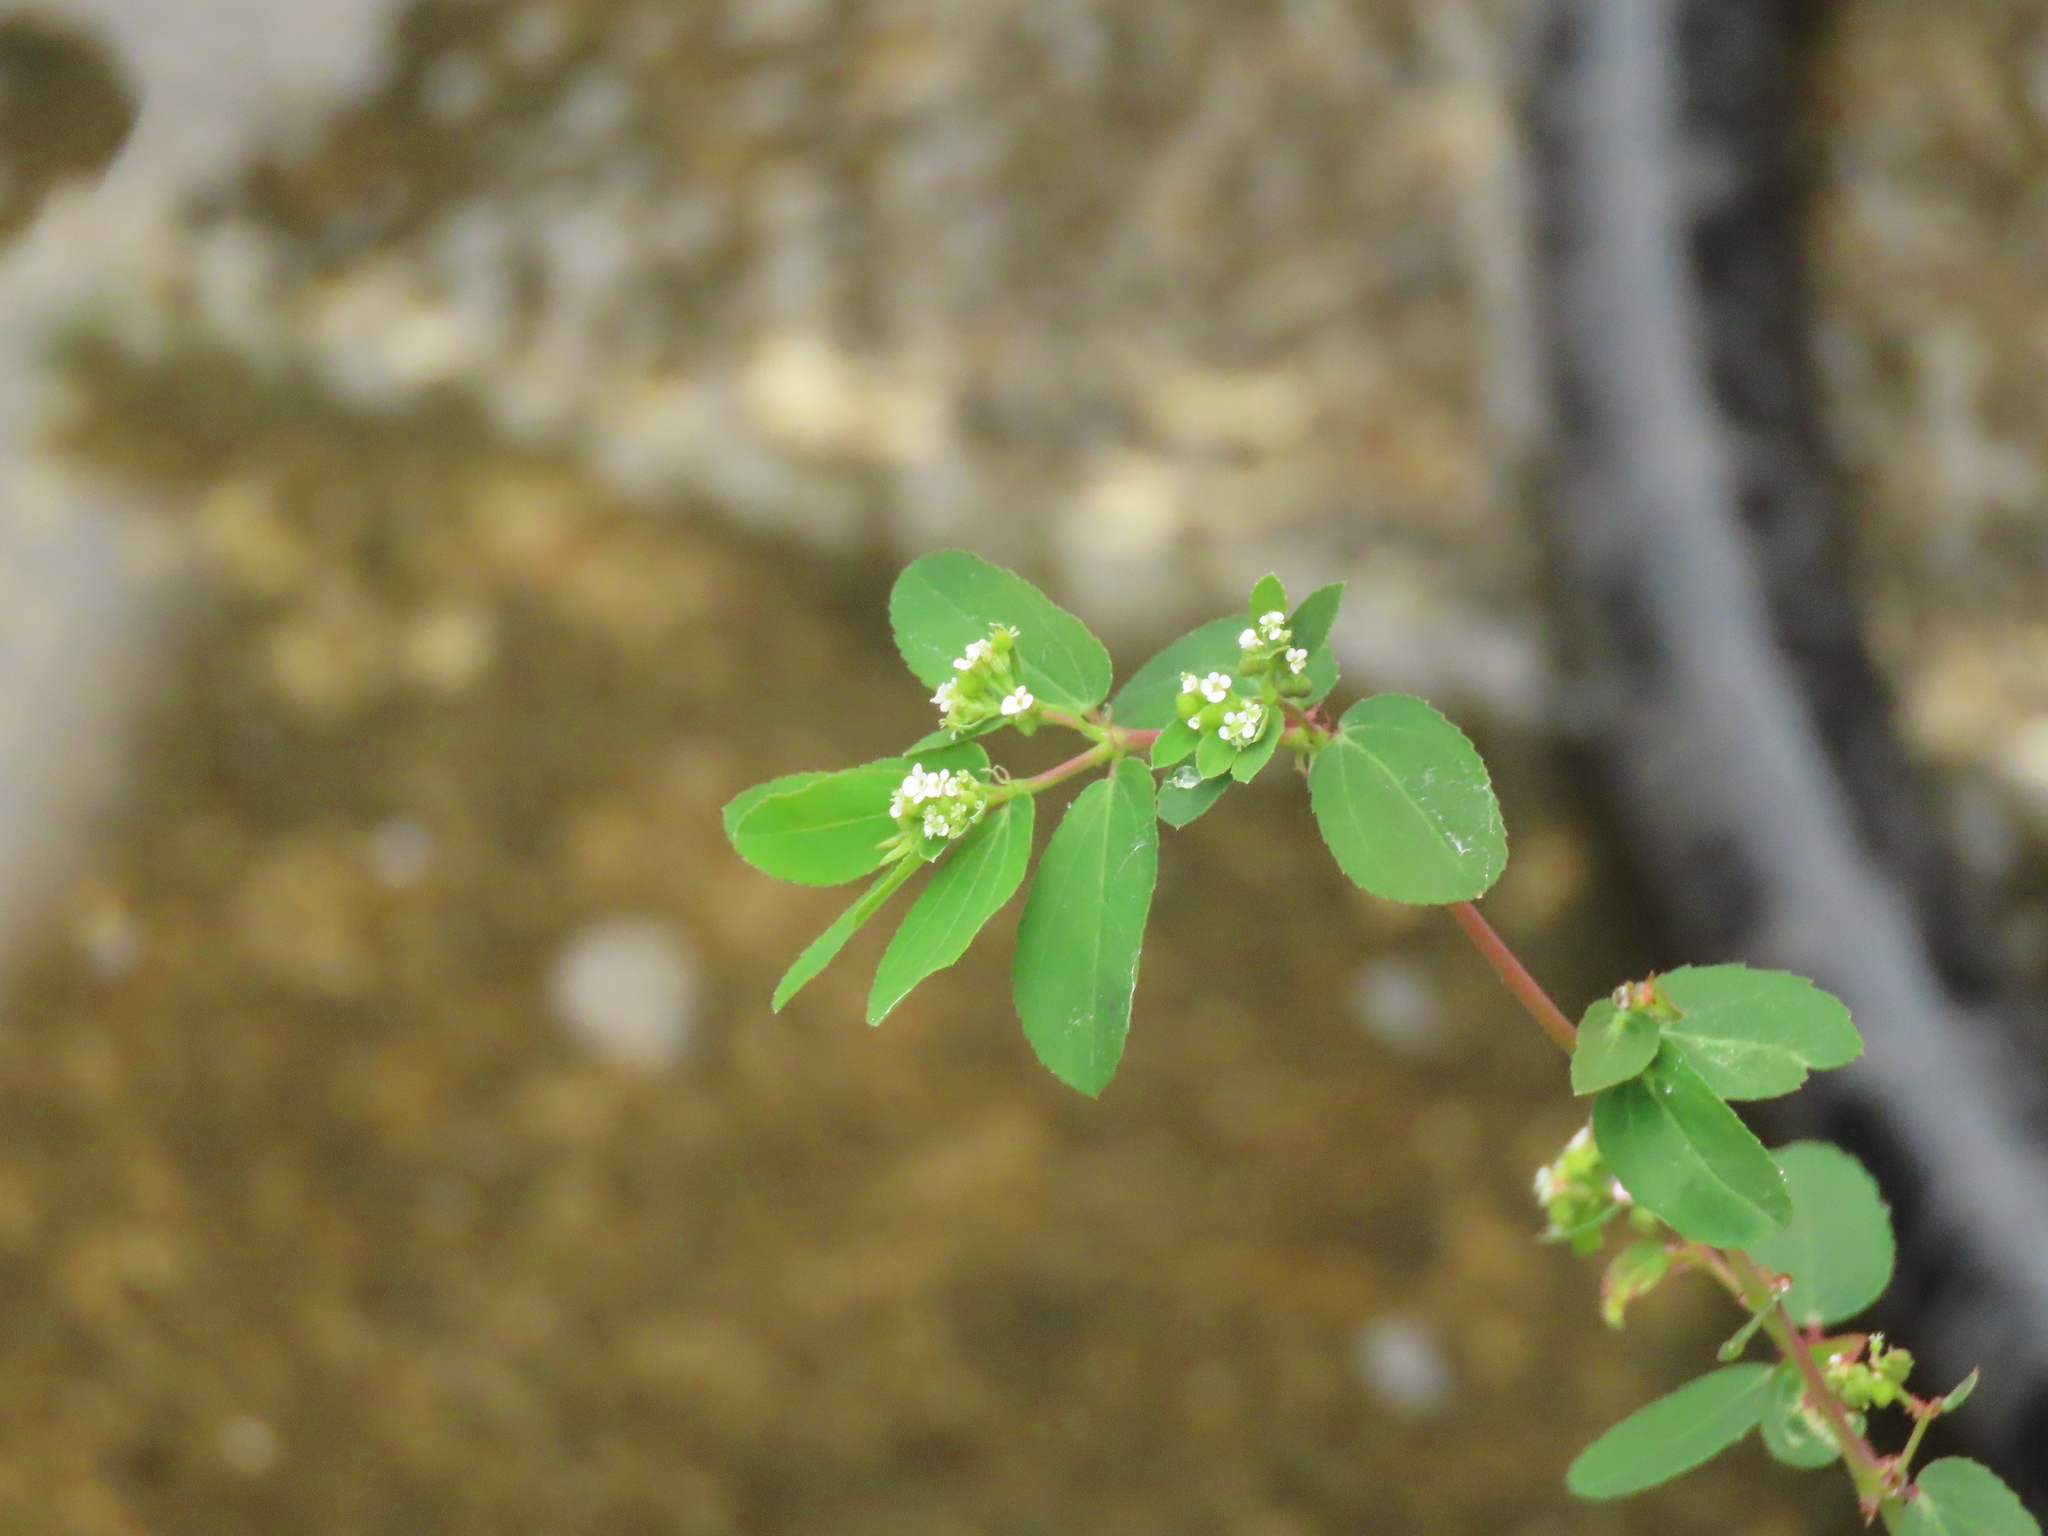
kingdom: Plantae
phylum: Tracheophyta
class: Magnoliopsida
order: Malpighiales
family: Euphorbiaceae
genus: Euphorbia
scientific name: Euphorbia hypericifolia
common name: Graceful sandmat
